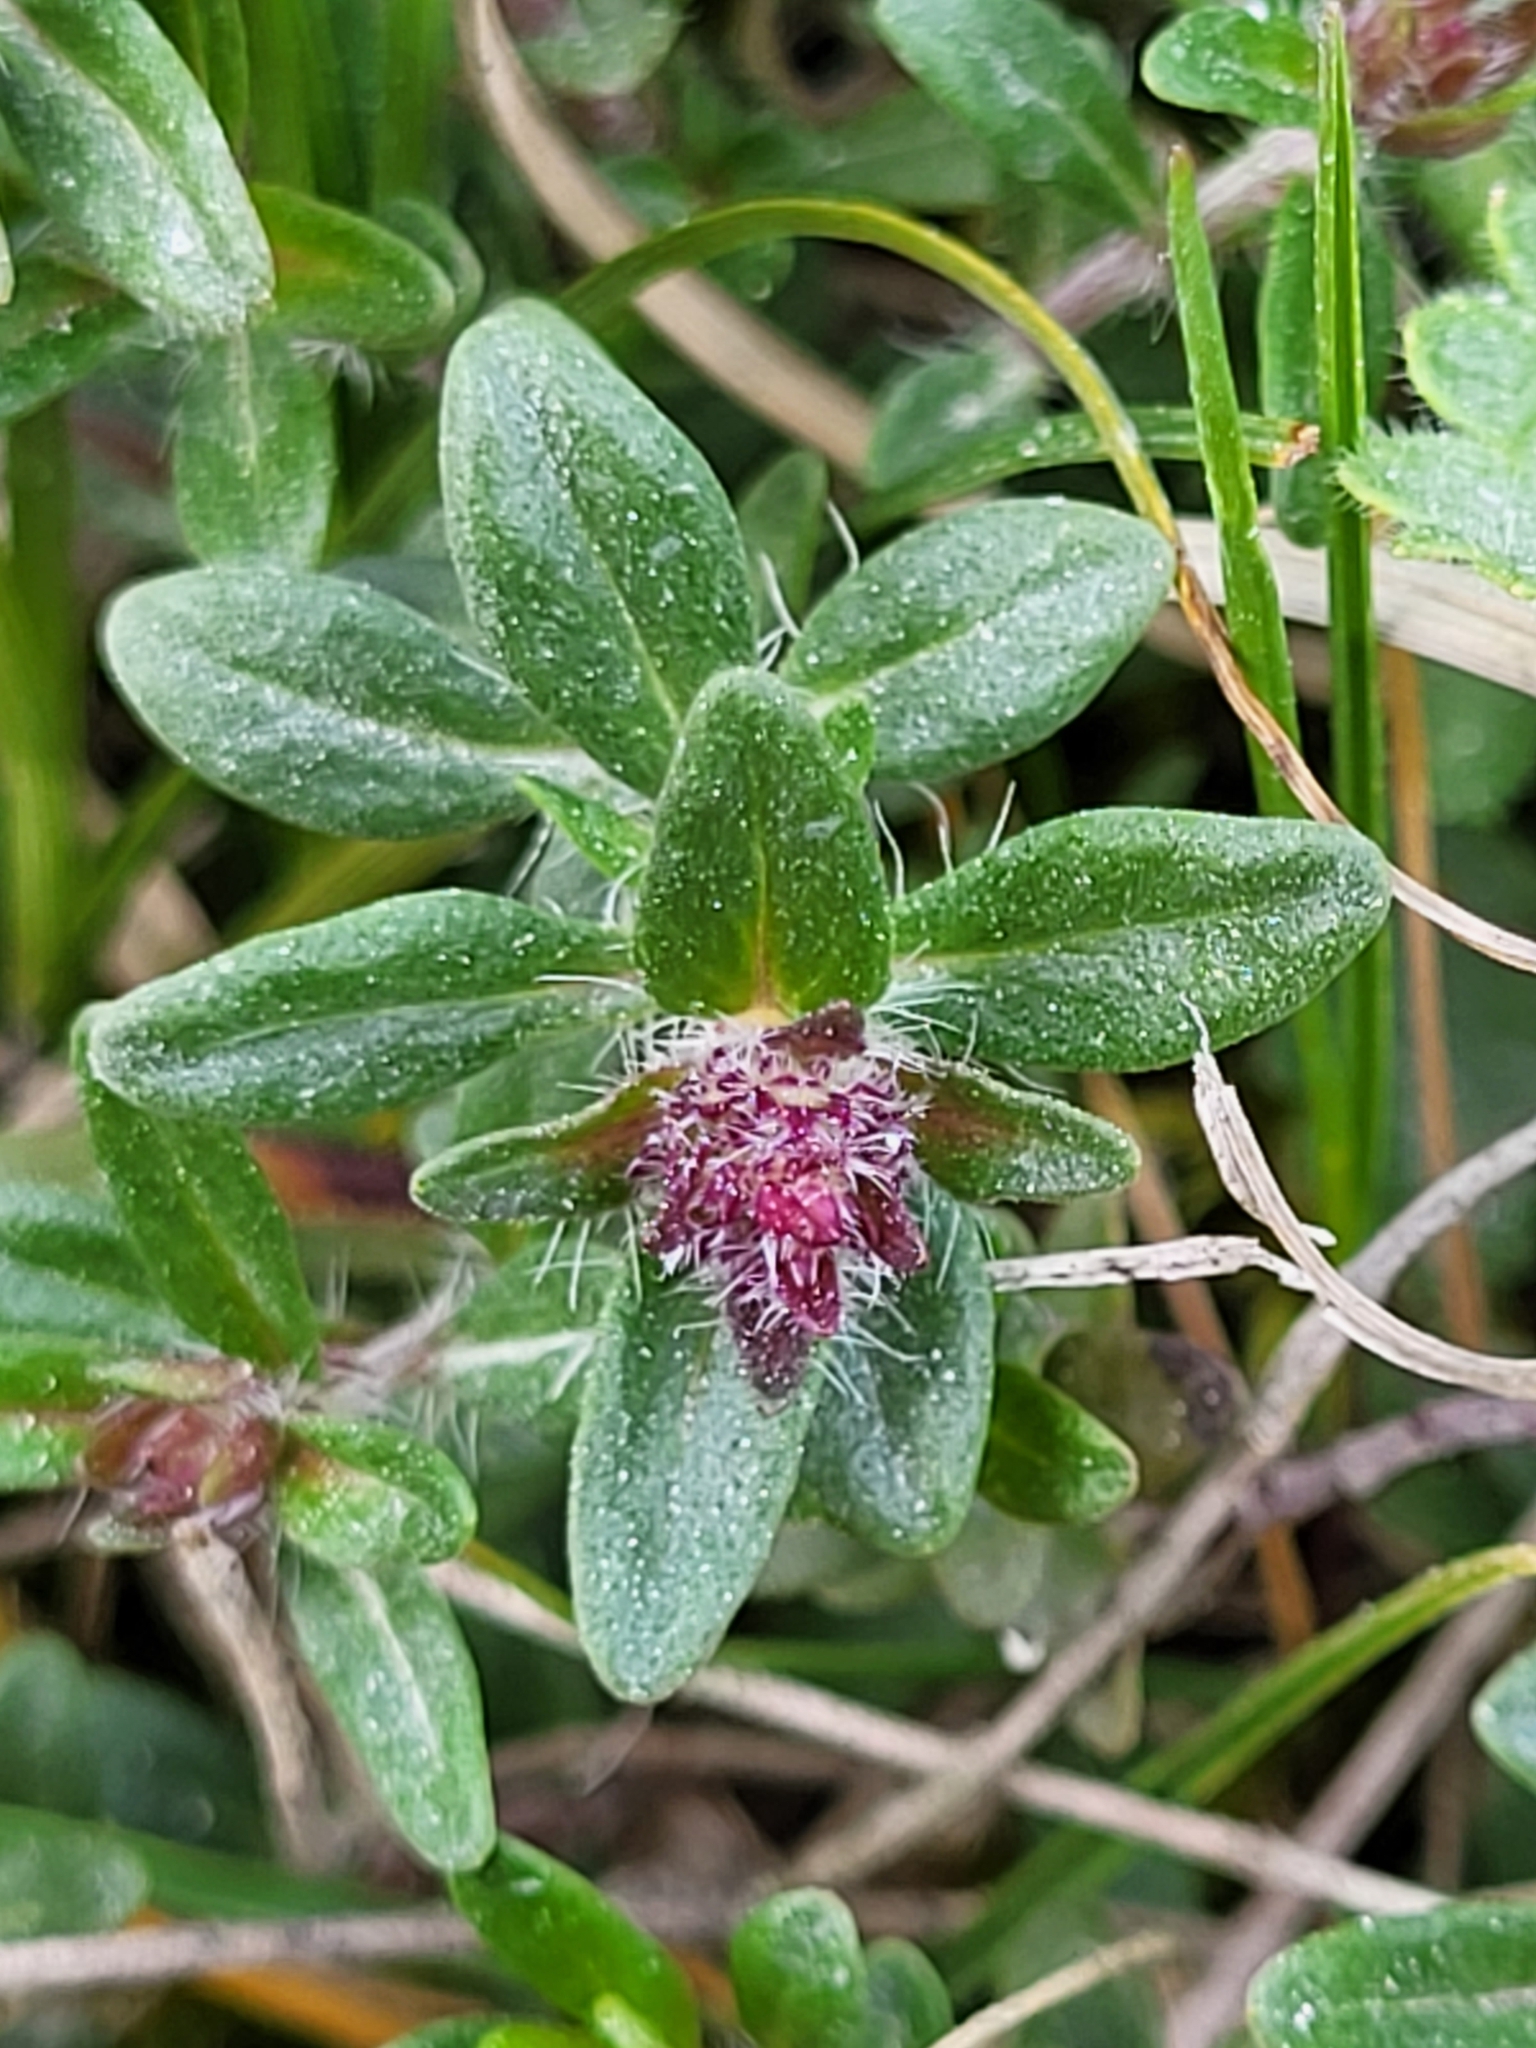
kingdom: Plantae
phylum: Tracheophyta
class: Magnoliopsida
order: Lamiales
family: Lamiaceae
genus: Thymus
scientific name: Thymus odoratissimus
